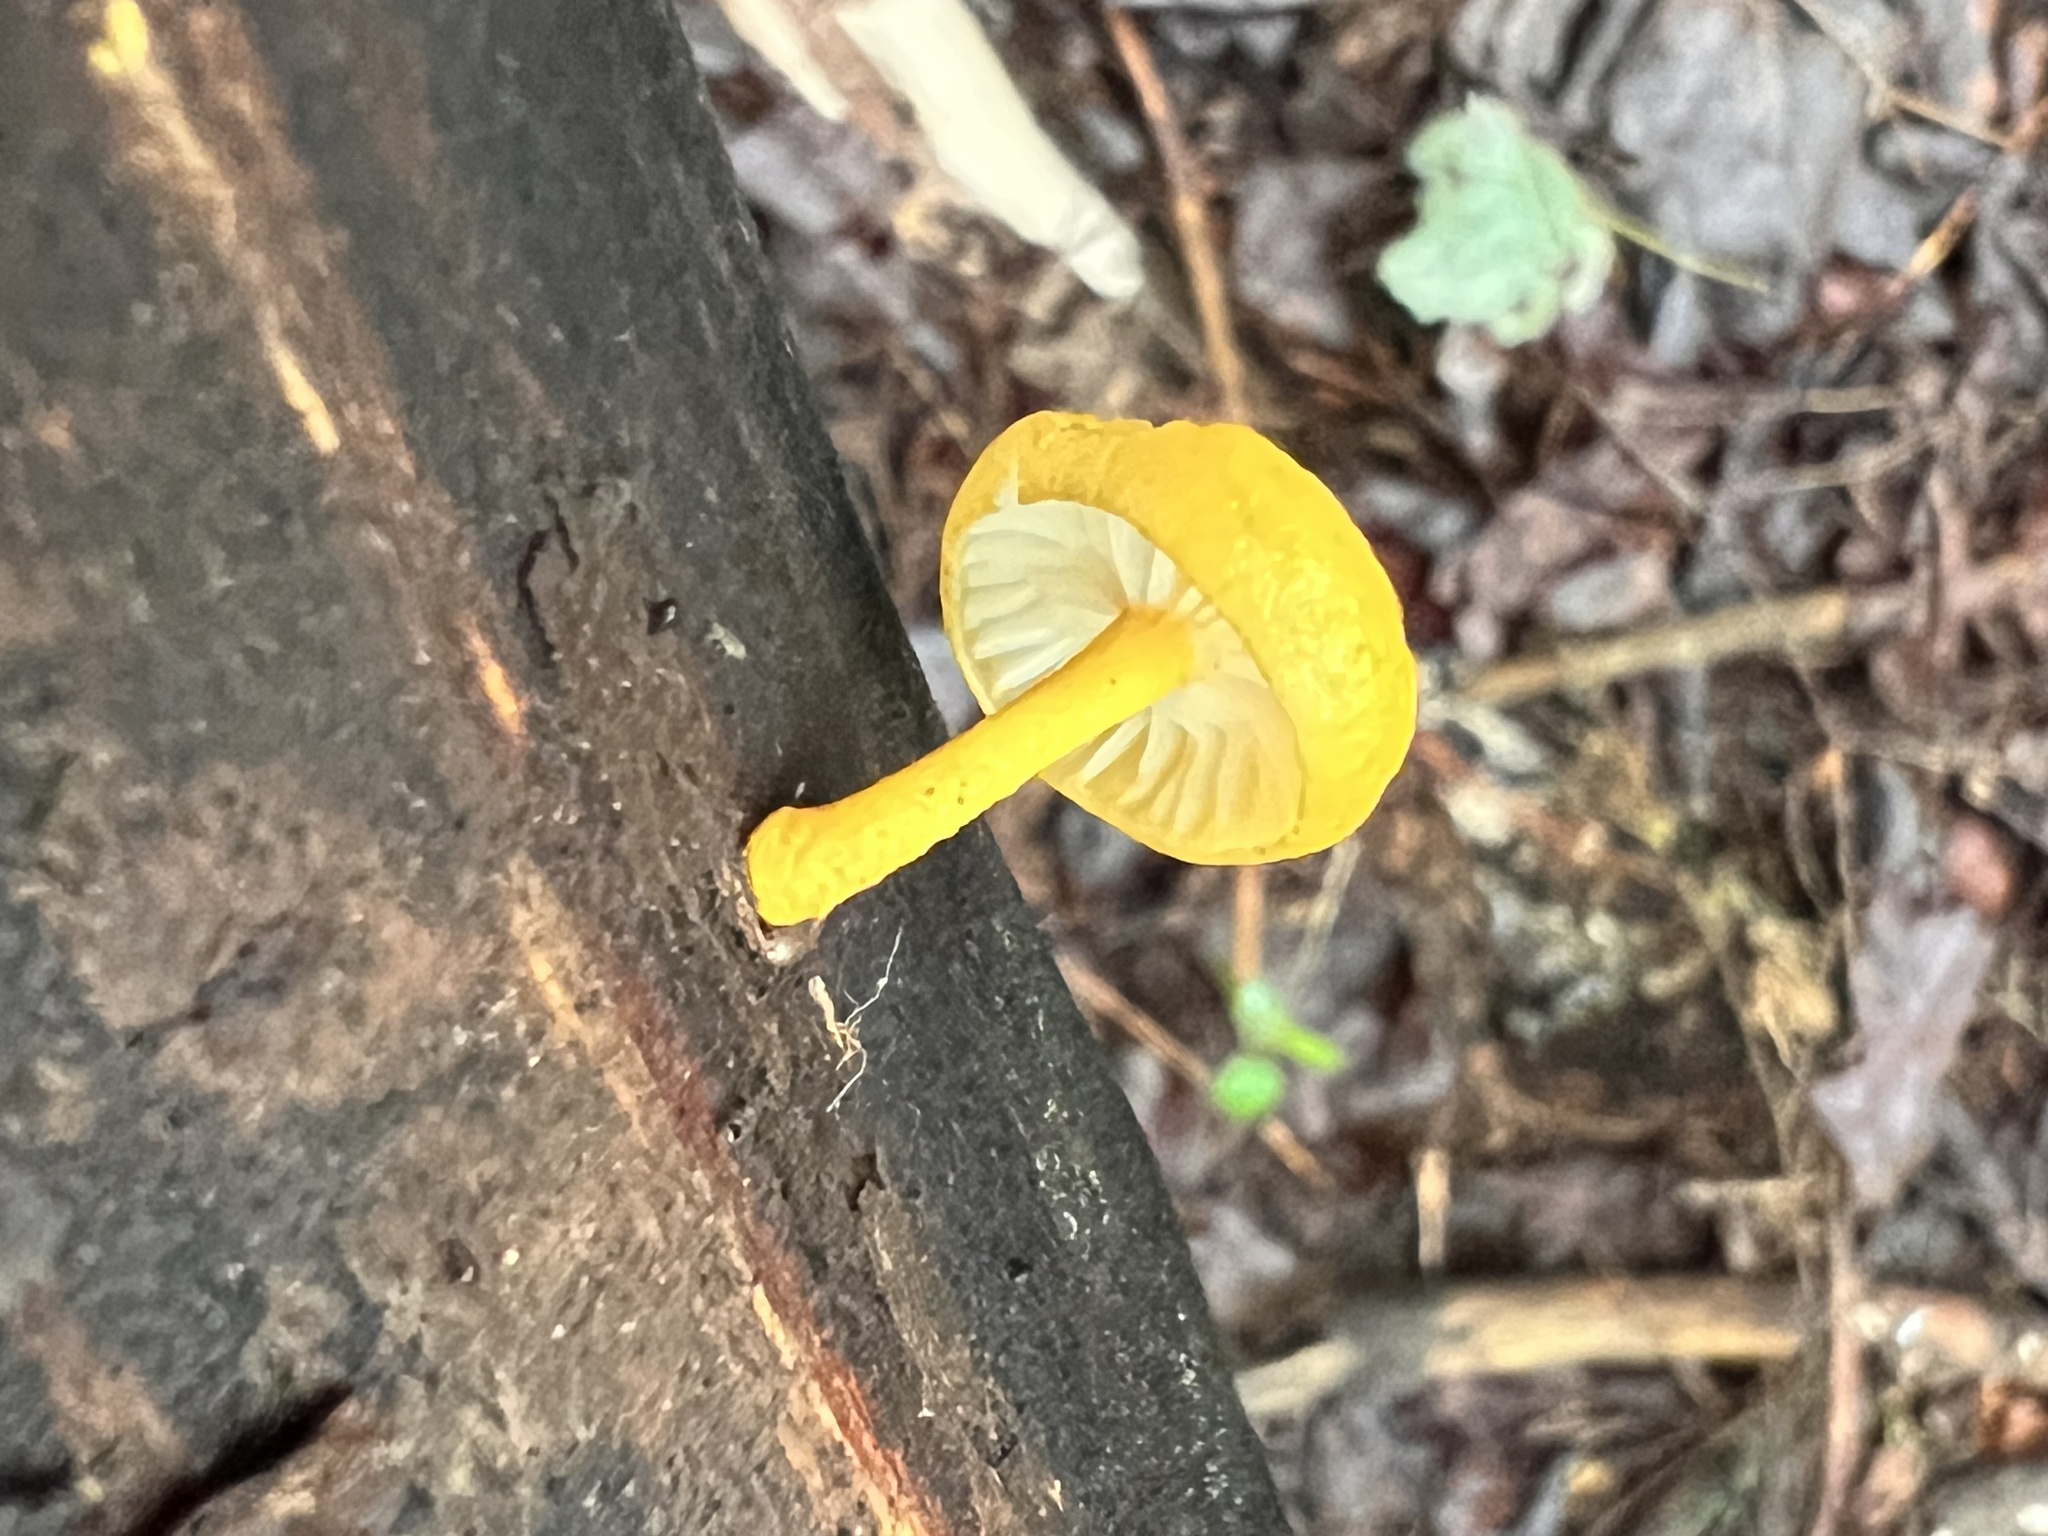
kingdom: Fungi
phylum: Basidiomycota
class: Agaricomycetes
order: Agaricales
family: Physalacriaceae
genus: Cyptotrama
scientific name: Cyptotrama chrysopepla
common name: Golden coincap
